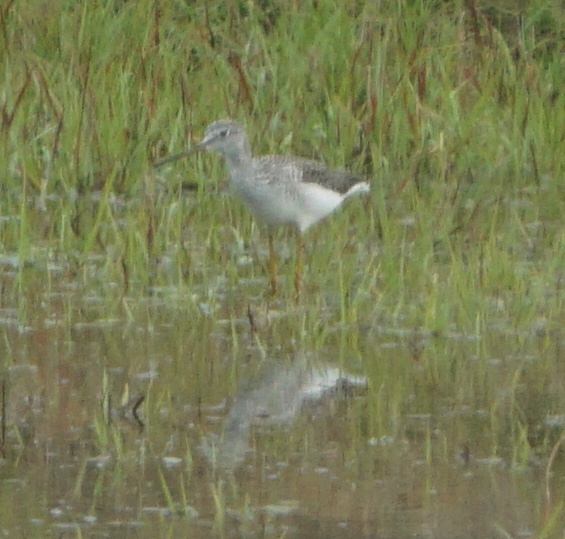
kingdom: Animalia
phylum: Chordata
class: Aves
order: Charadriiformes
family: Scolopacidae
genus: Tringa
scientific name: Tringa melanoleuca
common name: Greater yellowlegs
